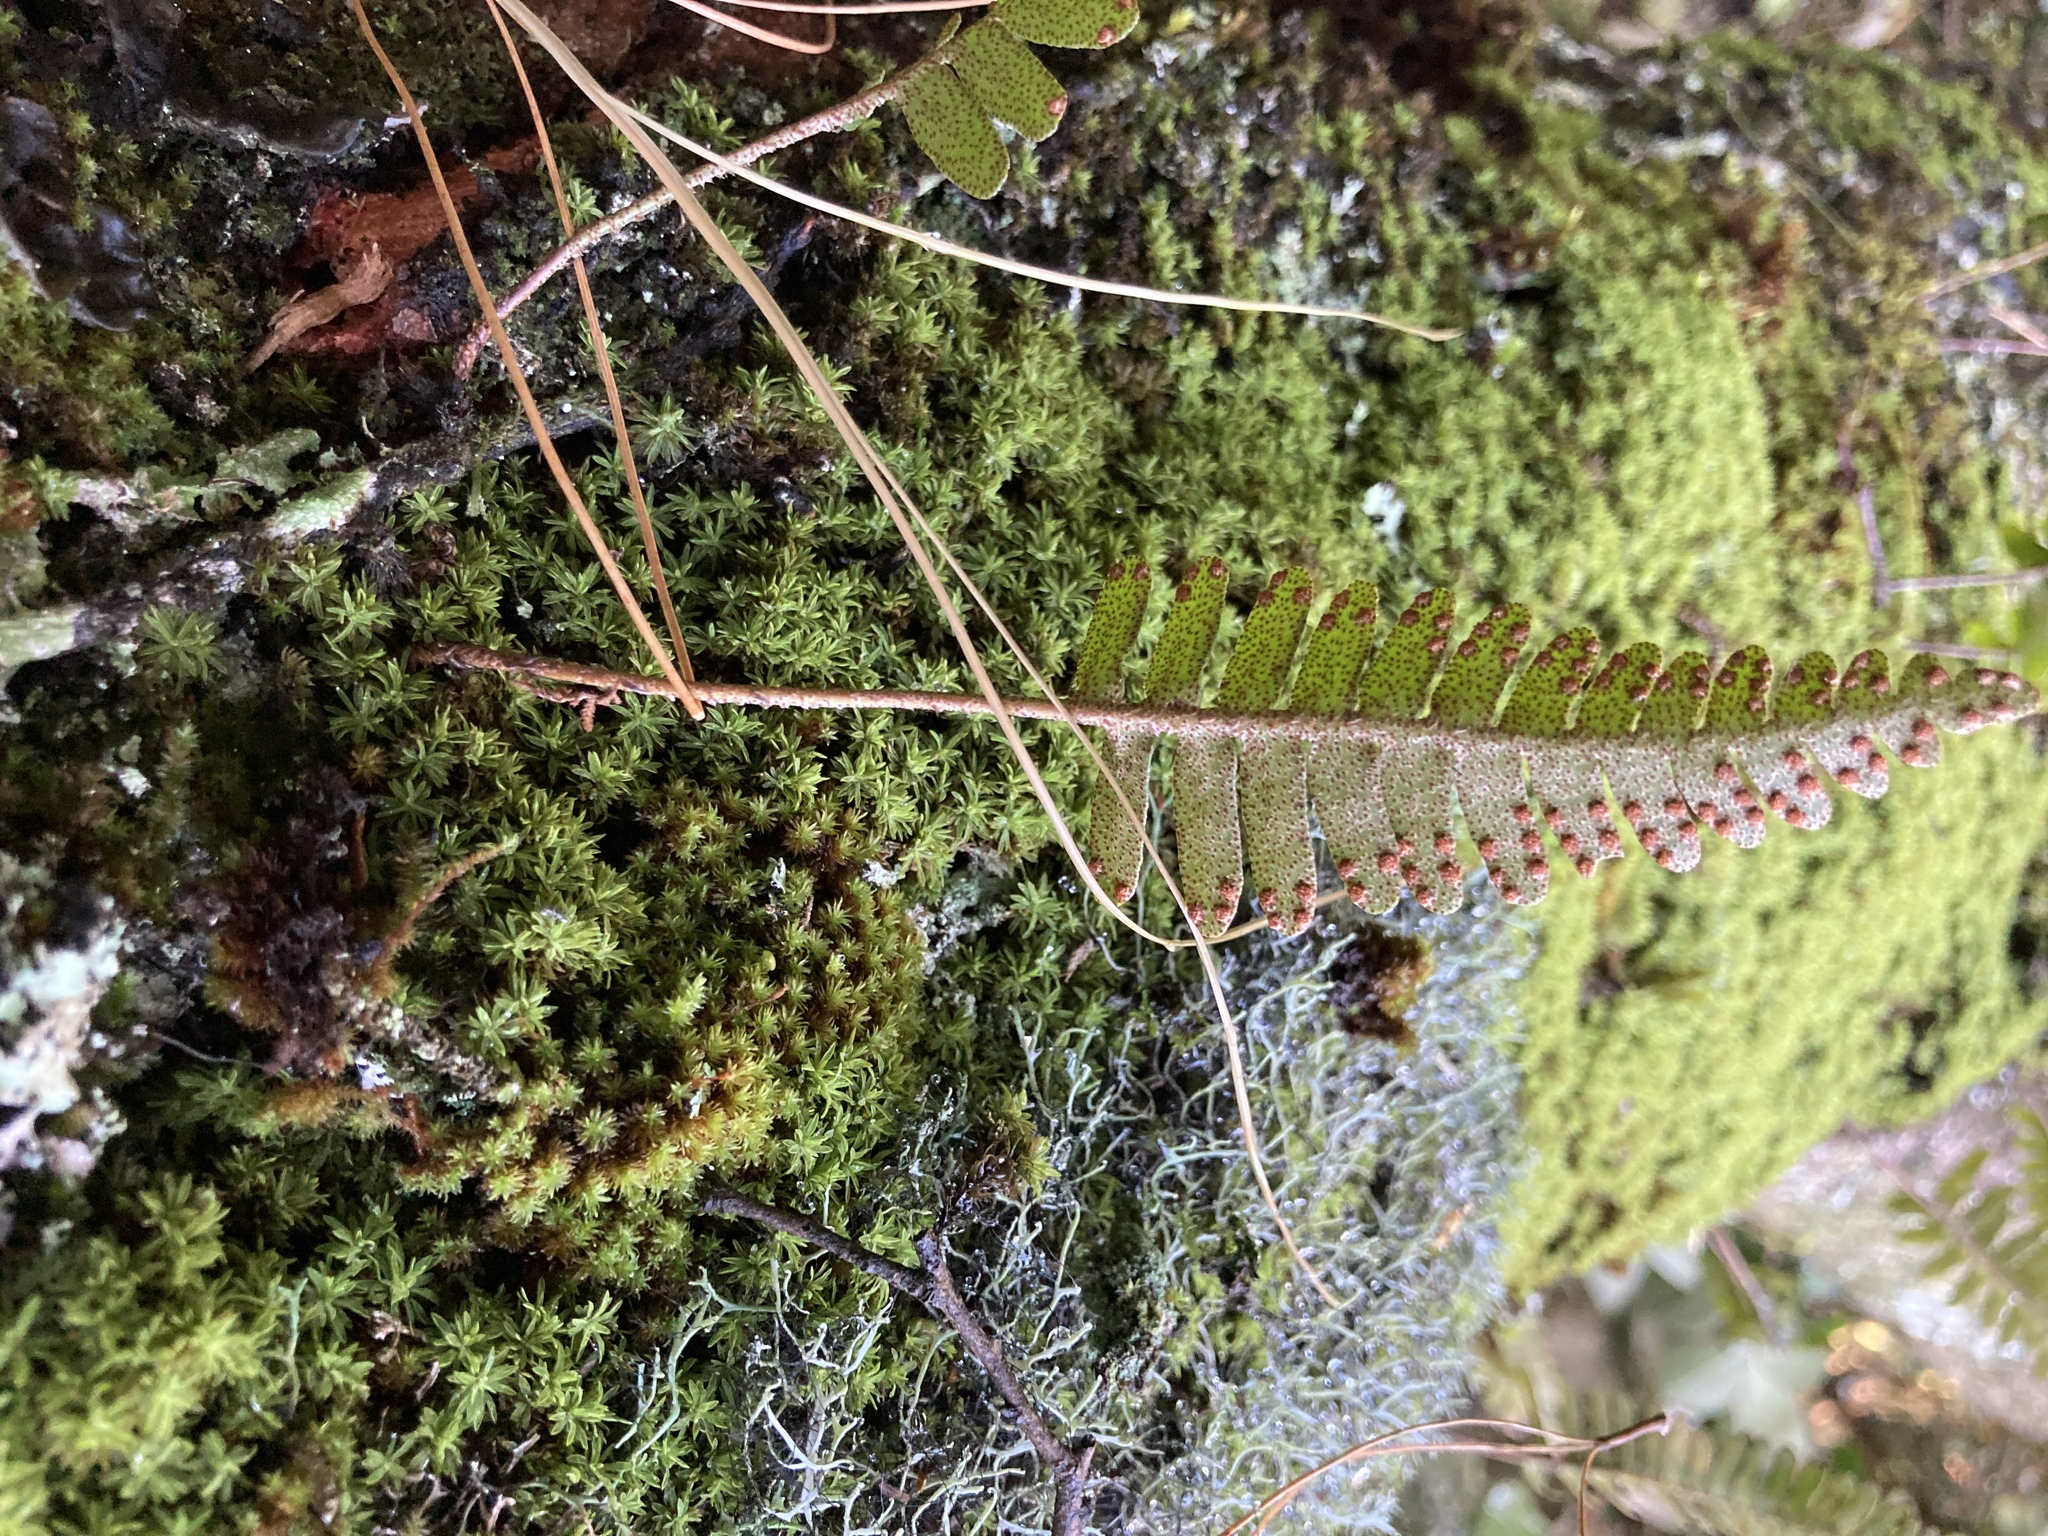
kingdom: Plantae
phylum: Tracheophyta
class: Polypodiopsida
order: Polypodiales
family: Polypodiaceae
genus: Pleopeltis
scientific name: Pleopeltis ecklonii
